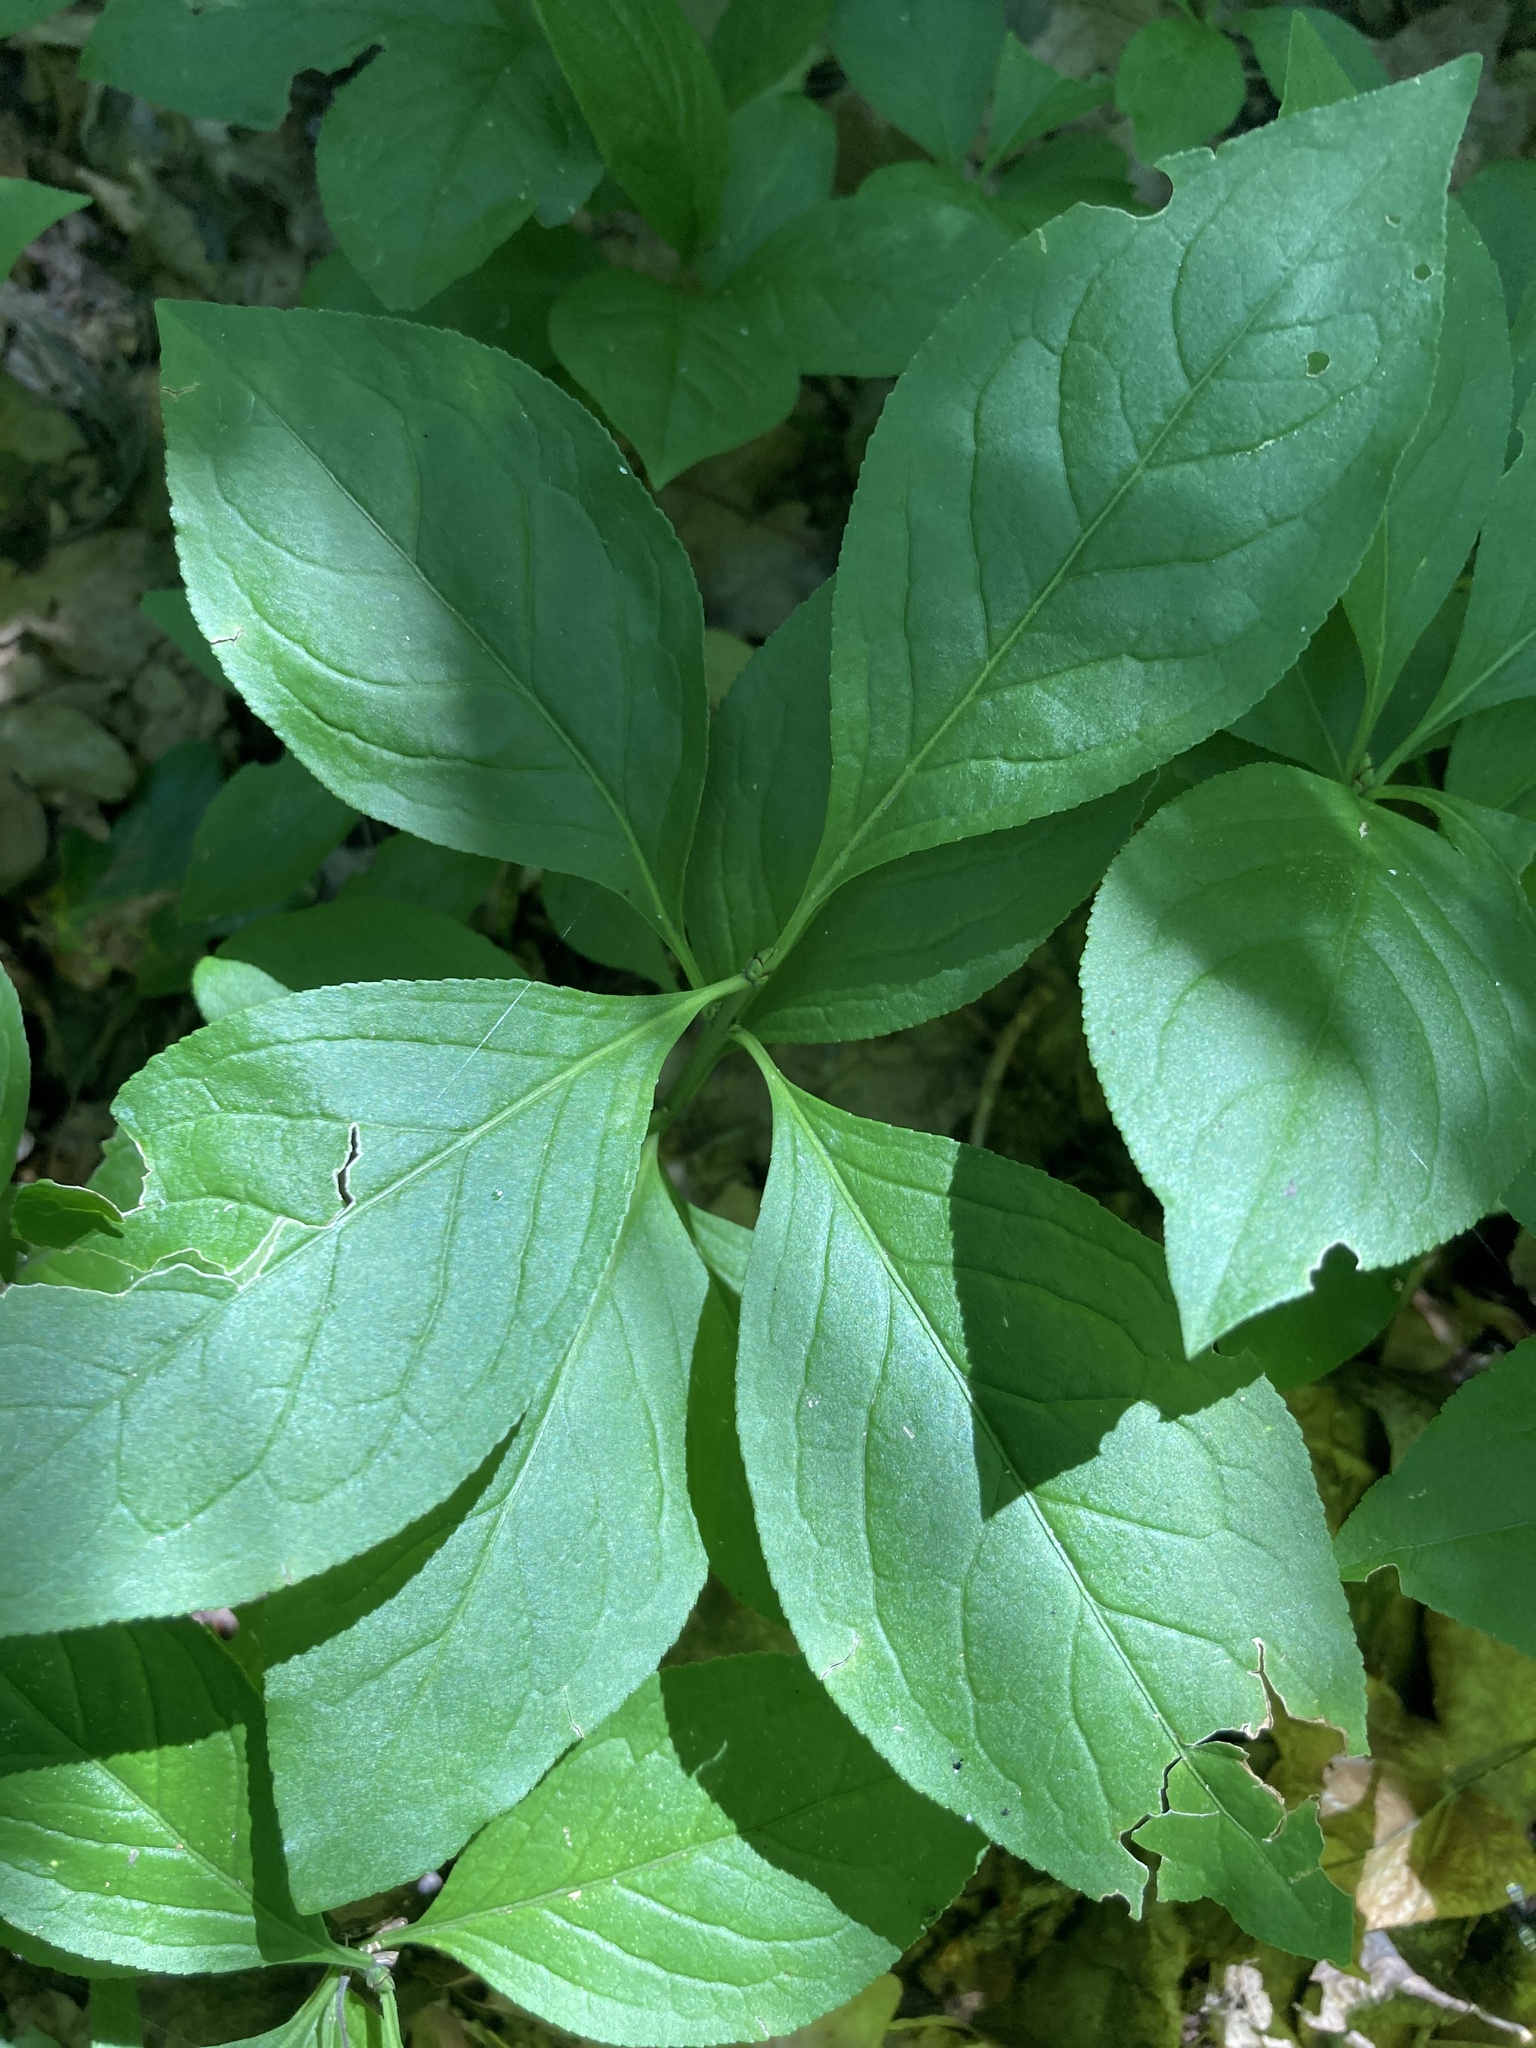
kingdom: Plantae
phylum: Tracheophyta
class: Magnoliopsida
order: Celastrales
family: Celastraceae
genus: Euonymus
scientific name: Euonymus europaeus
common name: Spindle
